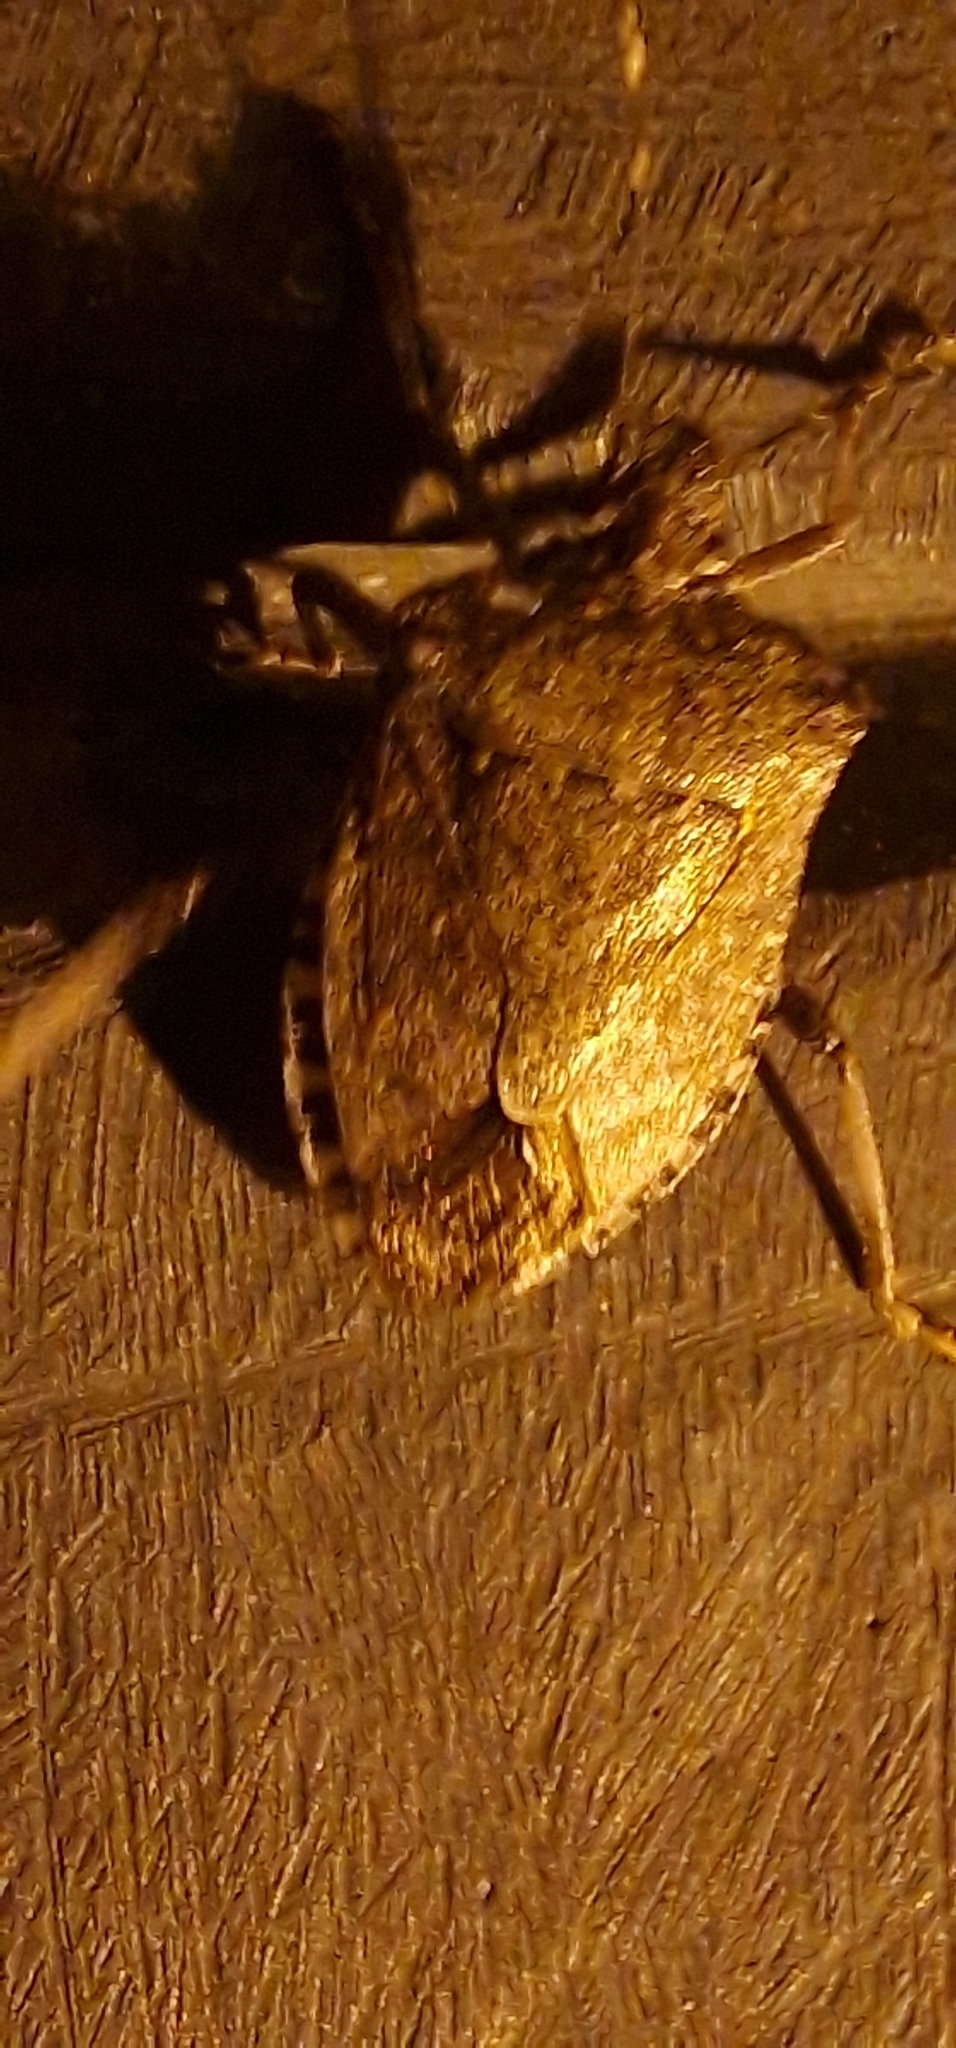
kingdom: Animalia
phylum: Arthropoda
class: Insecta
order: Hemiptera
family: Pentatomidae
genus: Halyomorpha
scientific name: Halyomorpha halys
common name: Brown marmorated stink bug
